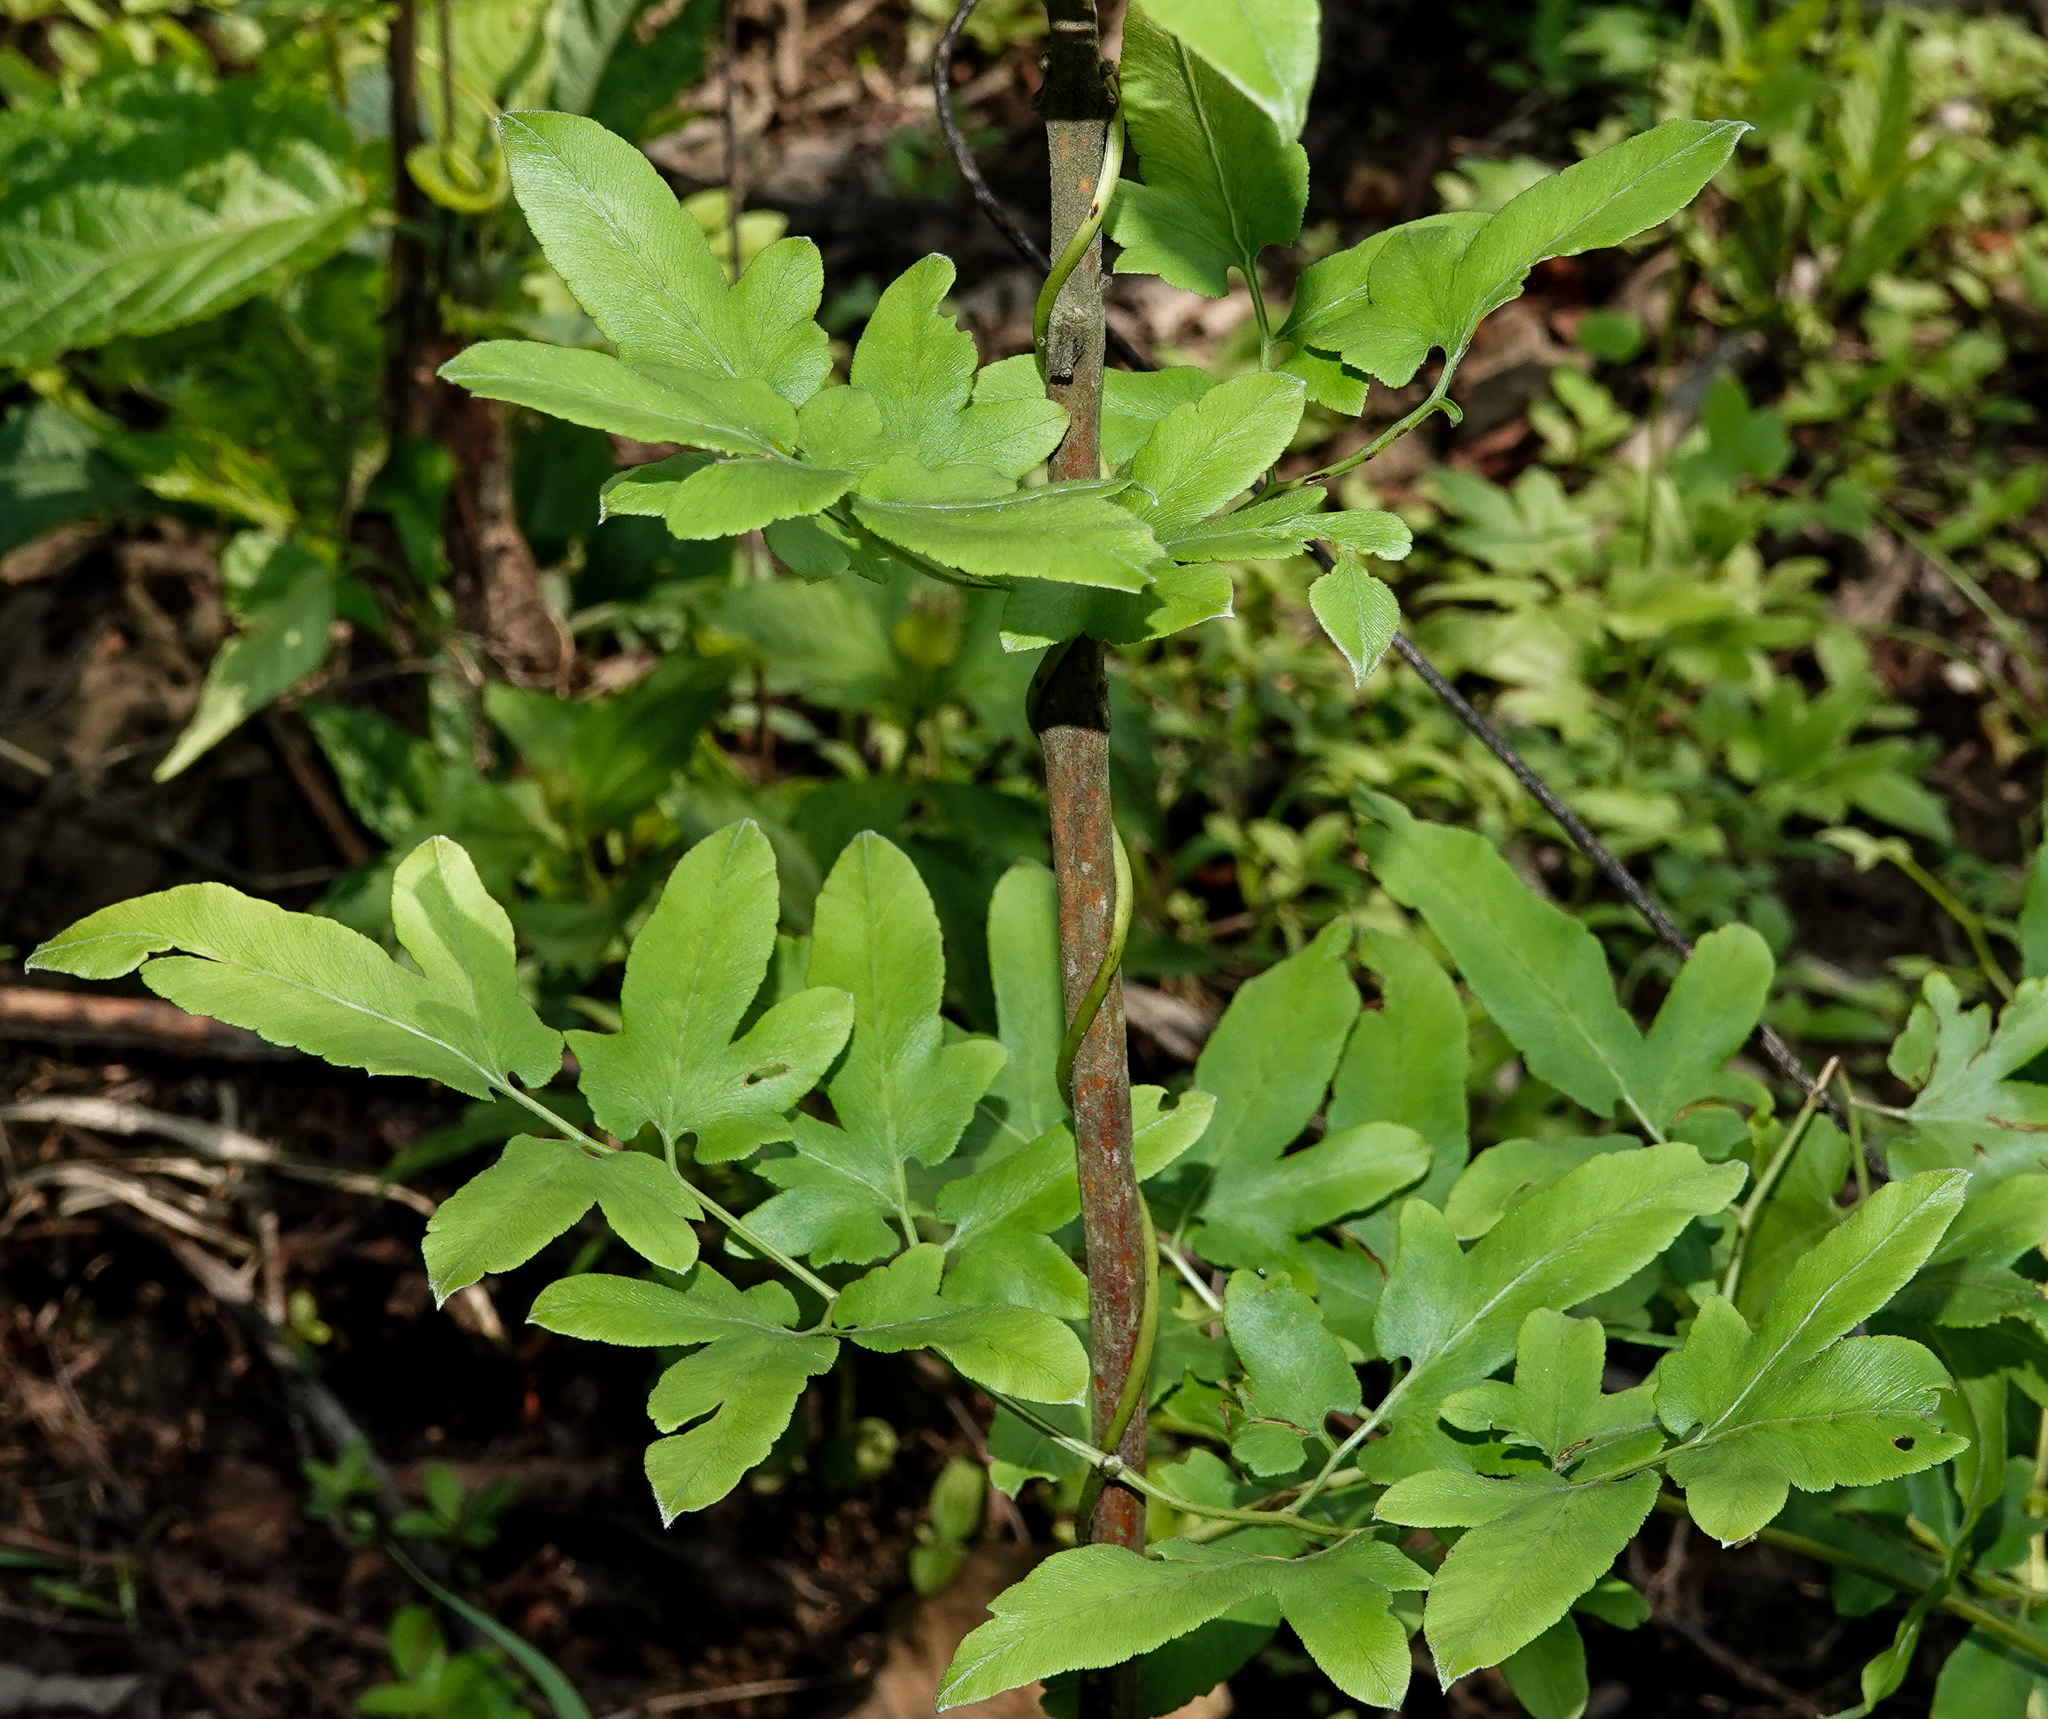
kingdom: Plantae
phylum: Tracheophyta
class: Polypodiopsida
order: Schizaeales
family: Lygodiaceae
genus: Lygodium
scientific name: Lygodium flexuosum
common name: Maidenhair creeper
